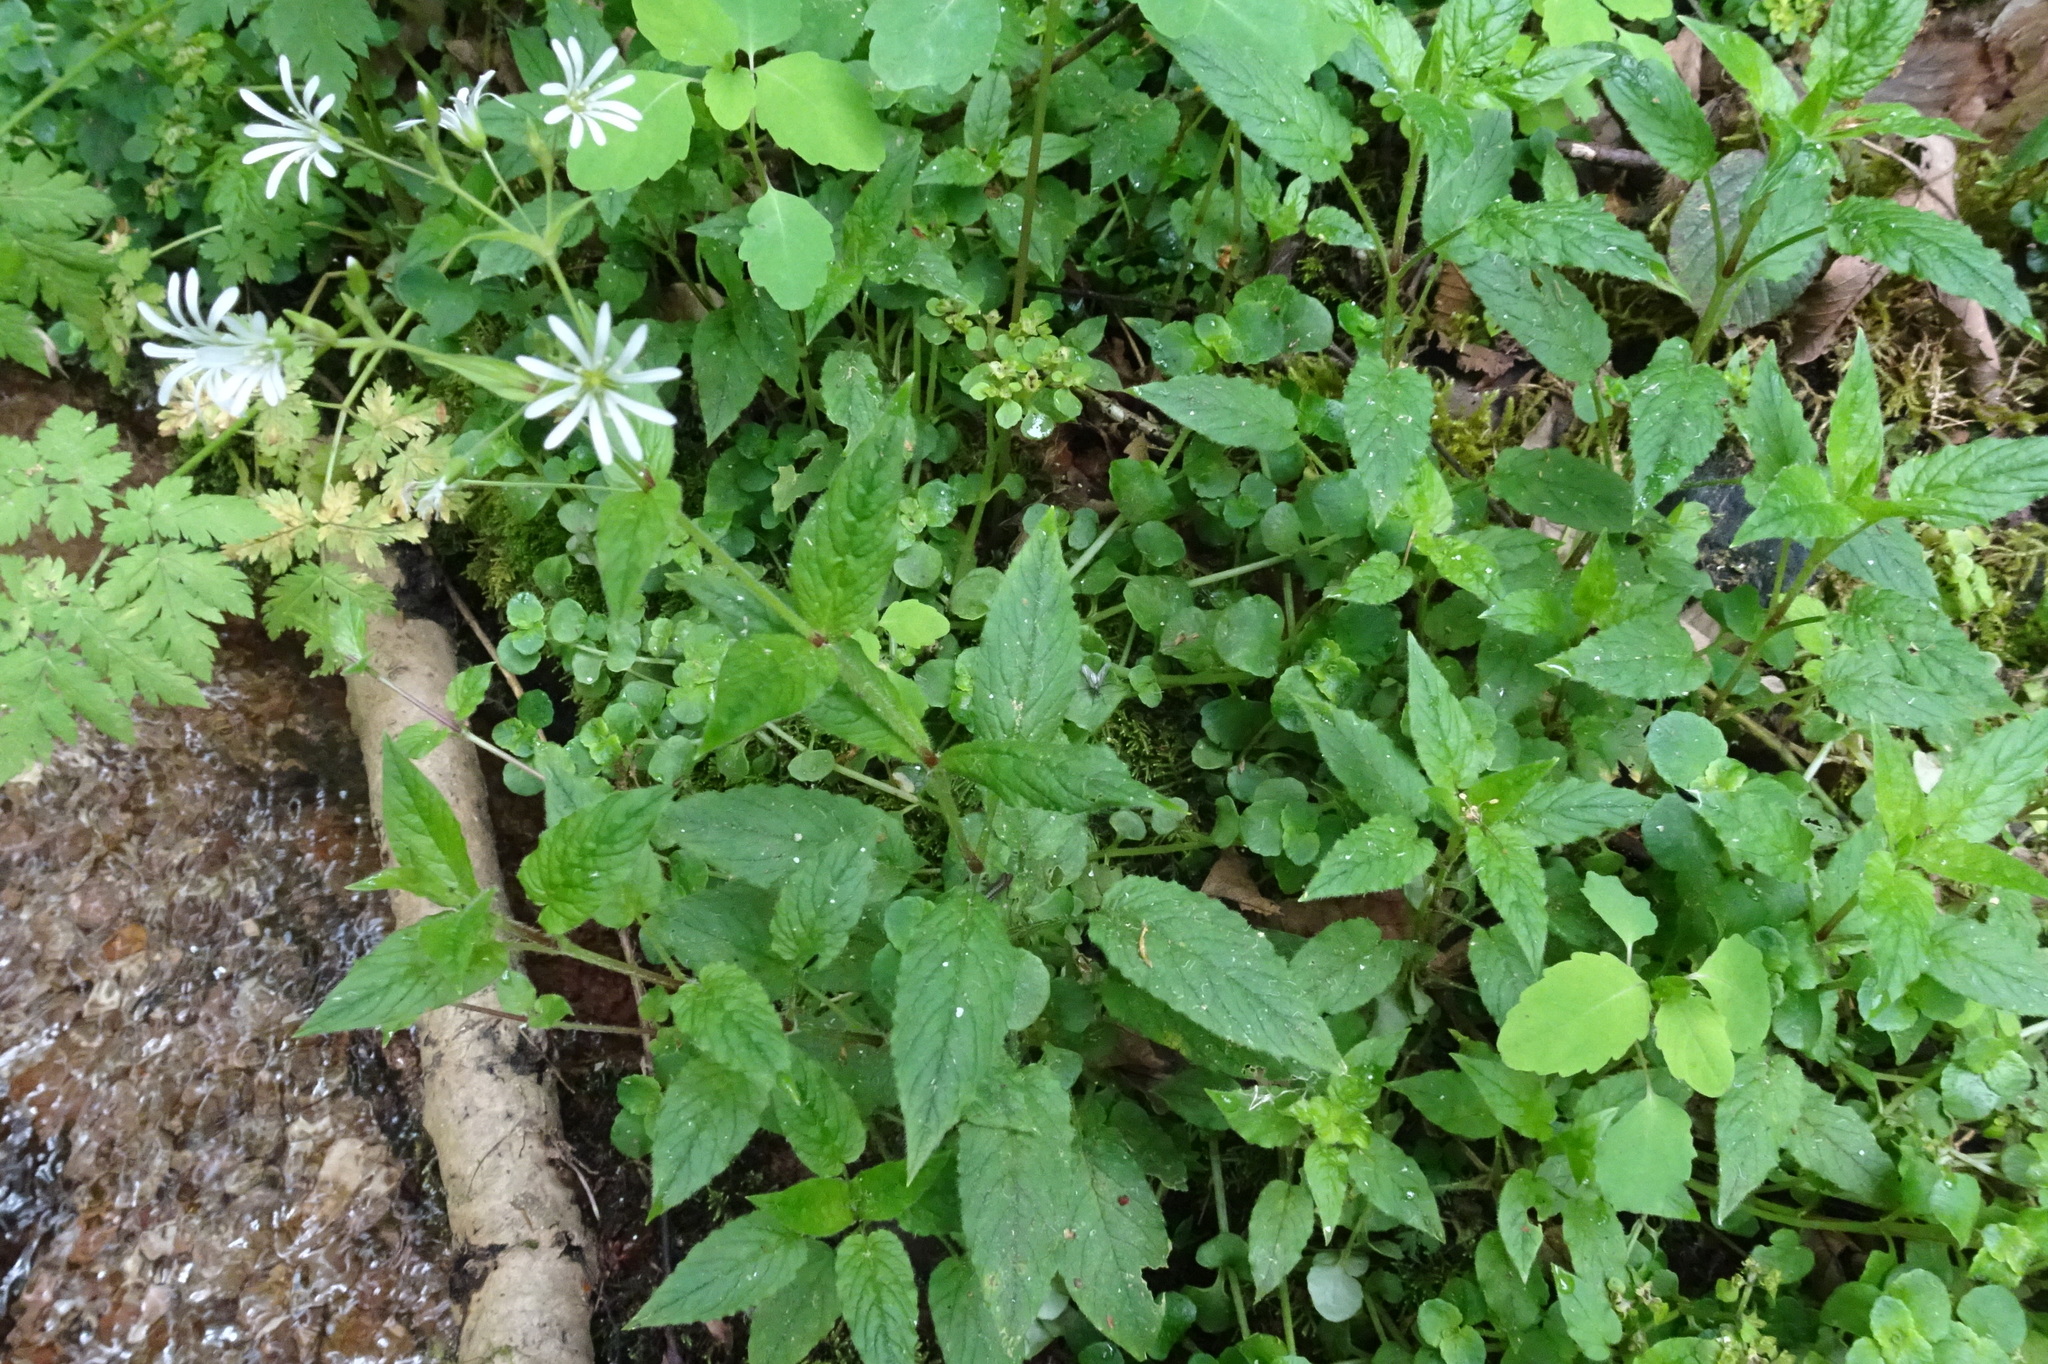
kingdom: Plantae
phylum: Tracheophyta
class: Magnoliopsida
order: Caryophyllales
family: Caryophyllaceae
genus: Stellaria
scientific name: Stellaria nemorum
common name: Wood stitchwort
